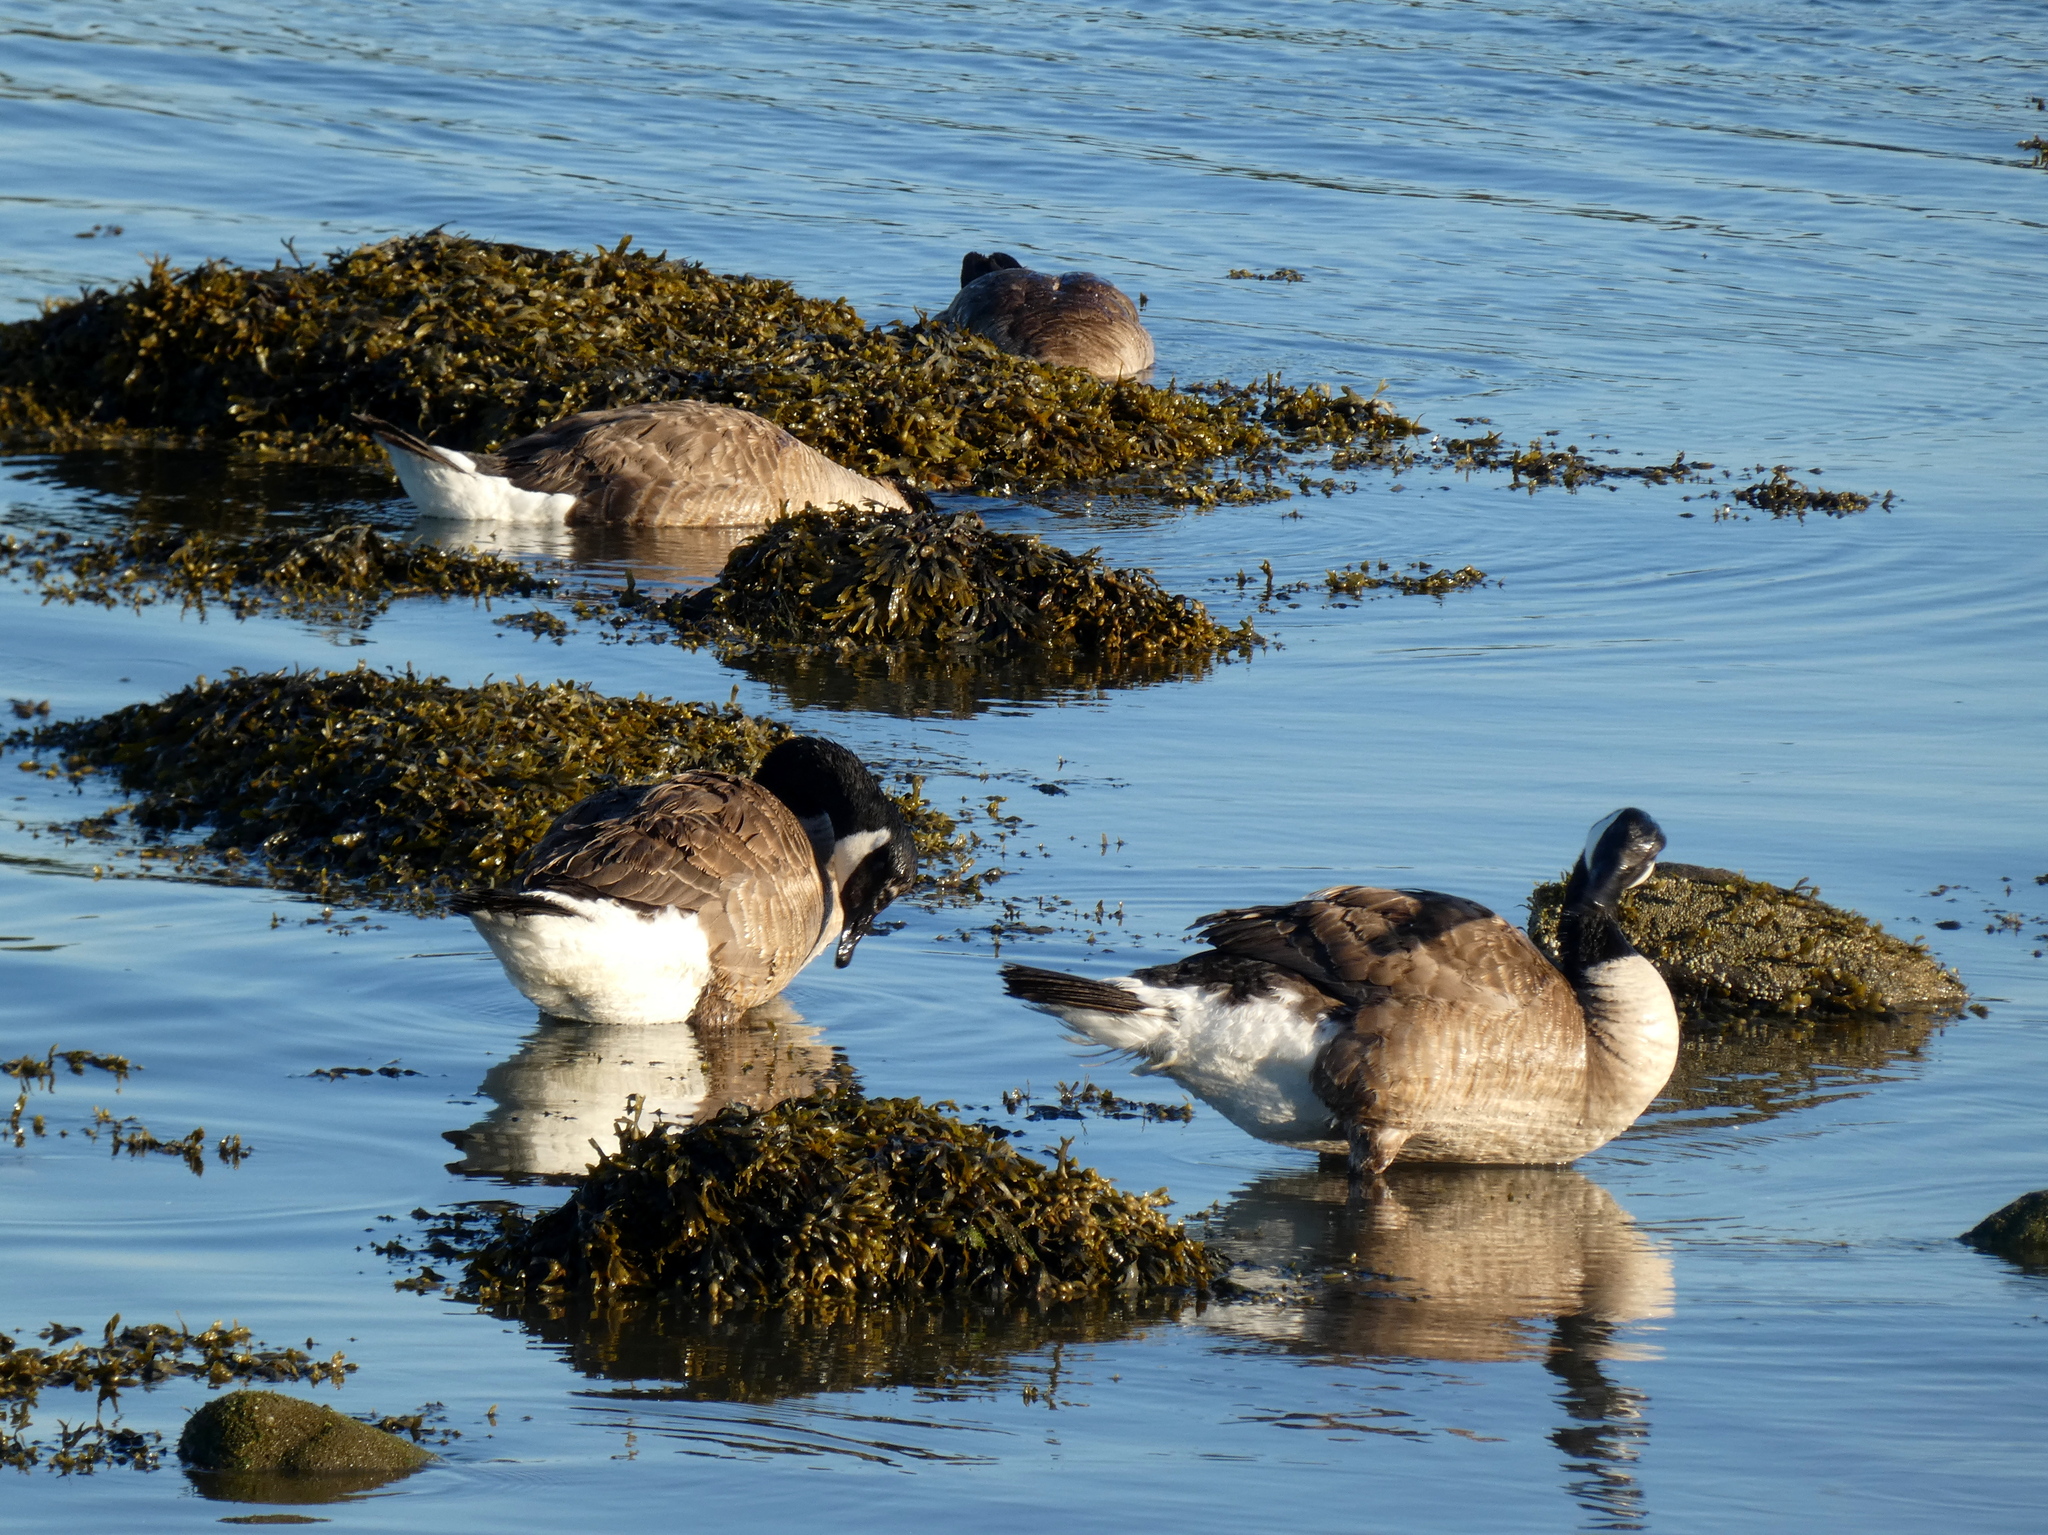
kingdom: Animalia
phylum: Chordata
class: Aves
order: Anseriformes
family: Anatidae
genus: Branta
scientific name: Branta canadensis
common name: Canada goose
